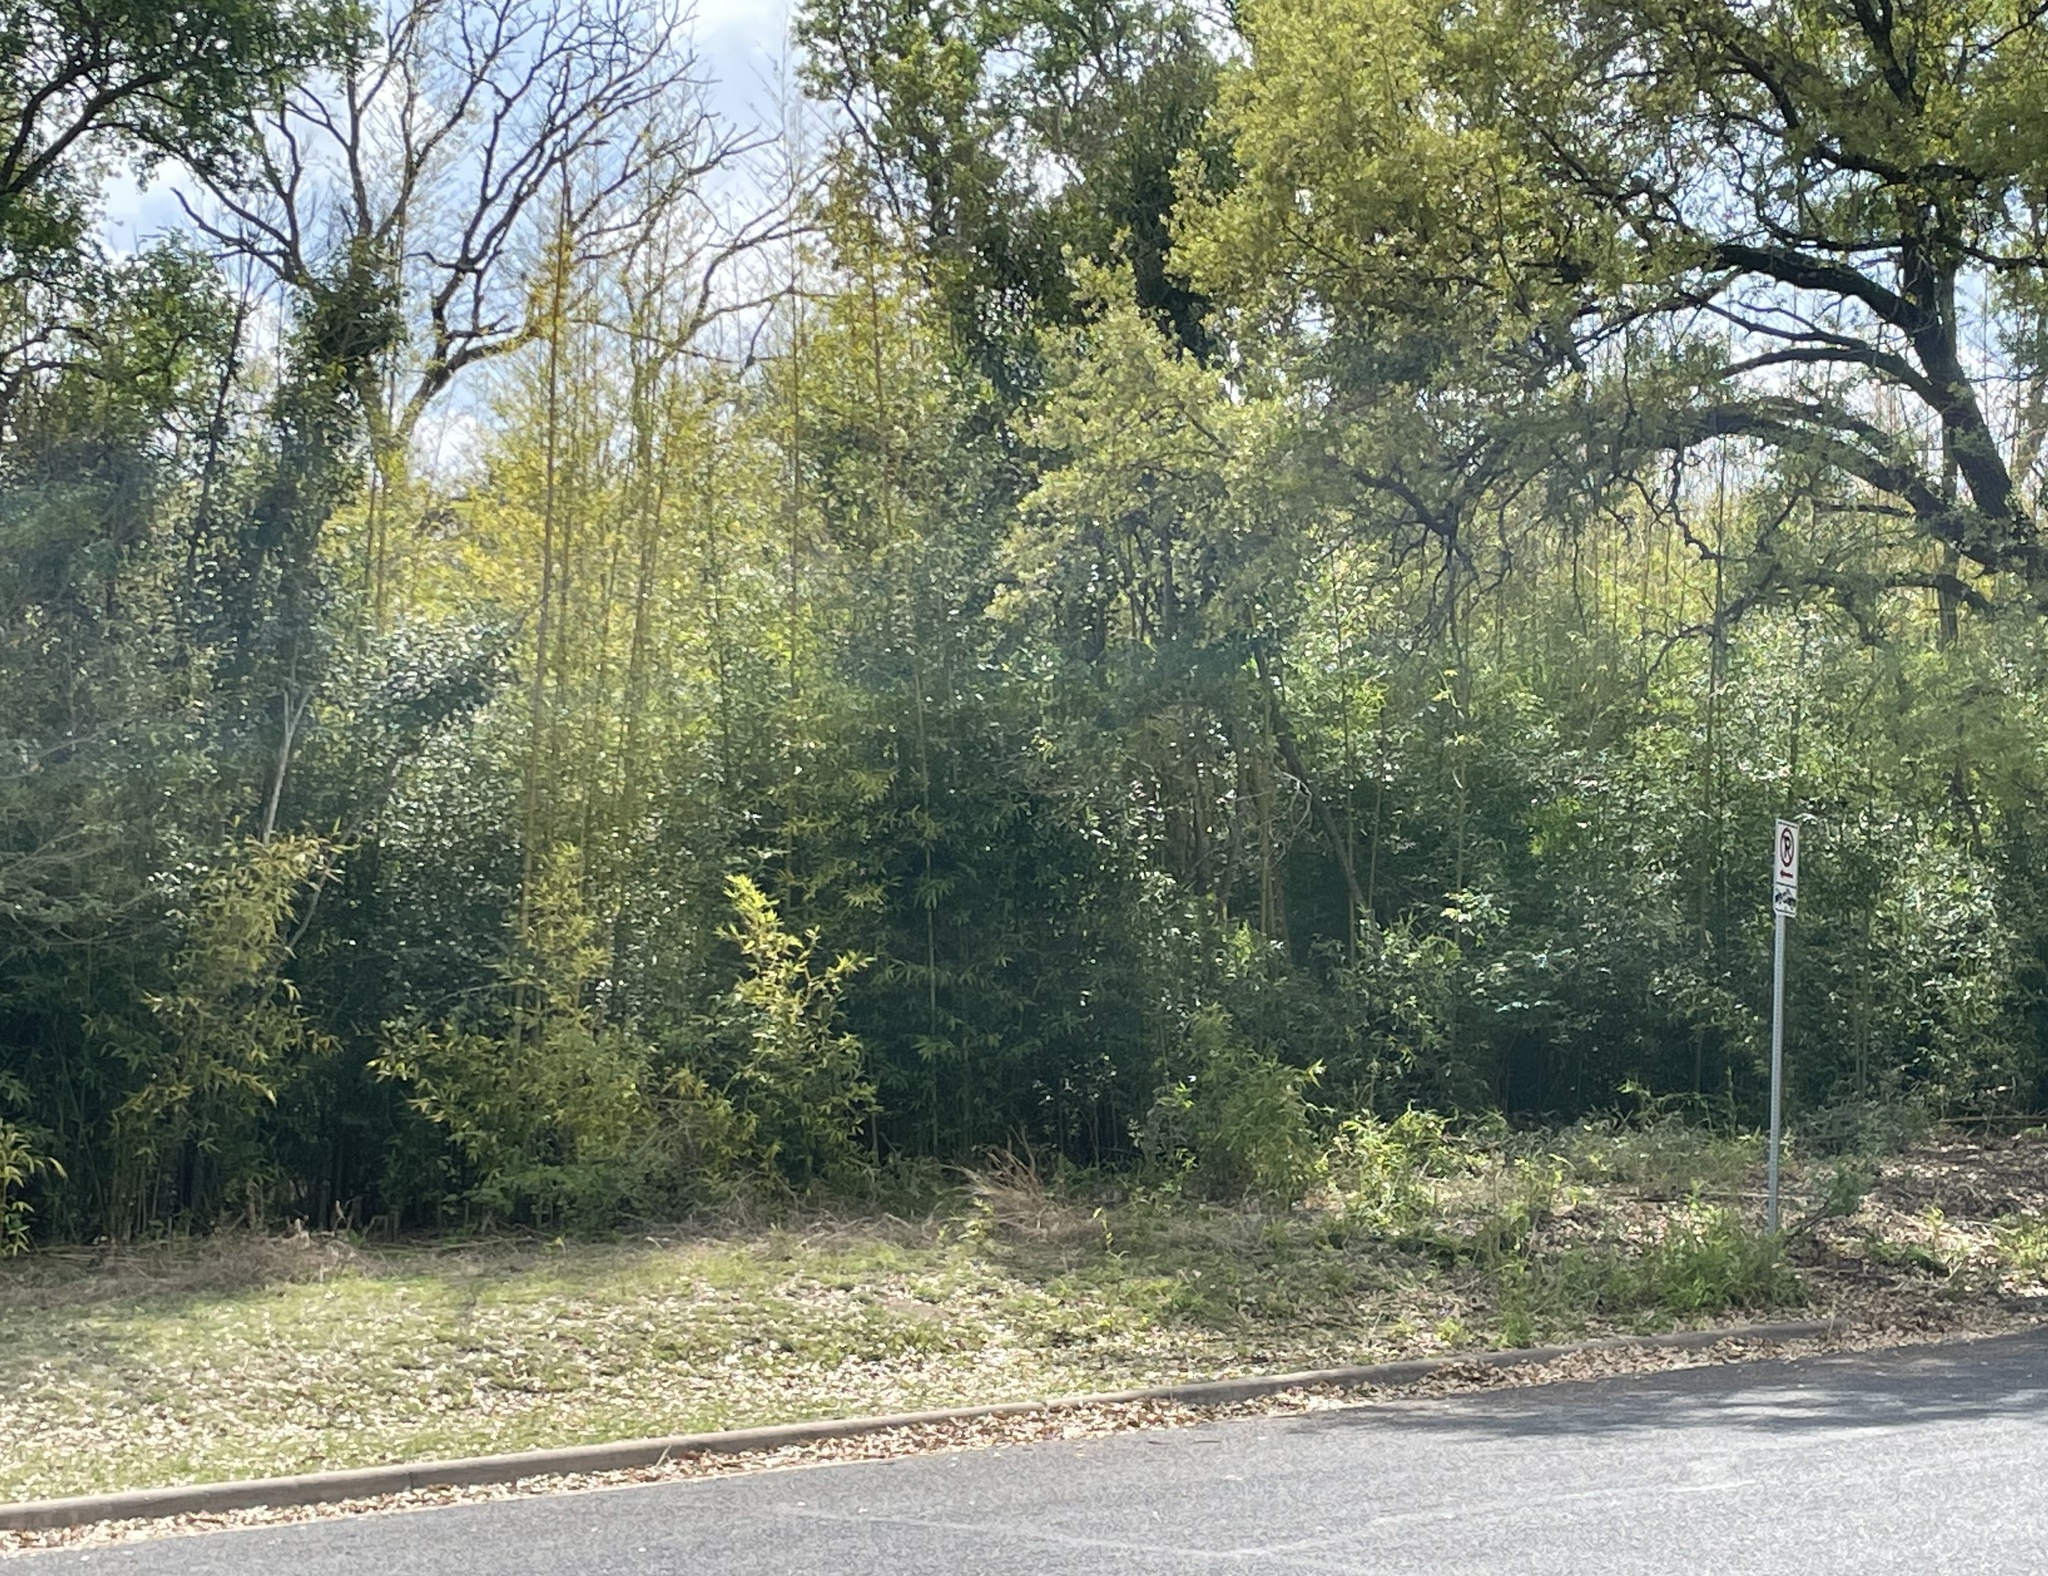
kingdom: Plantae
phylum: Tracheophyta
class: Liliopsida
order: Poales
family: Poaceae
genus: Phyllostachys
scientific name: Phyllostachys aurea
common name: Golden bamboo
